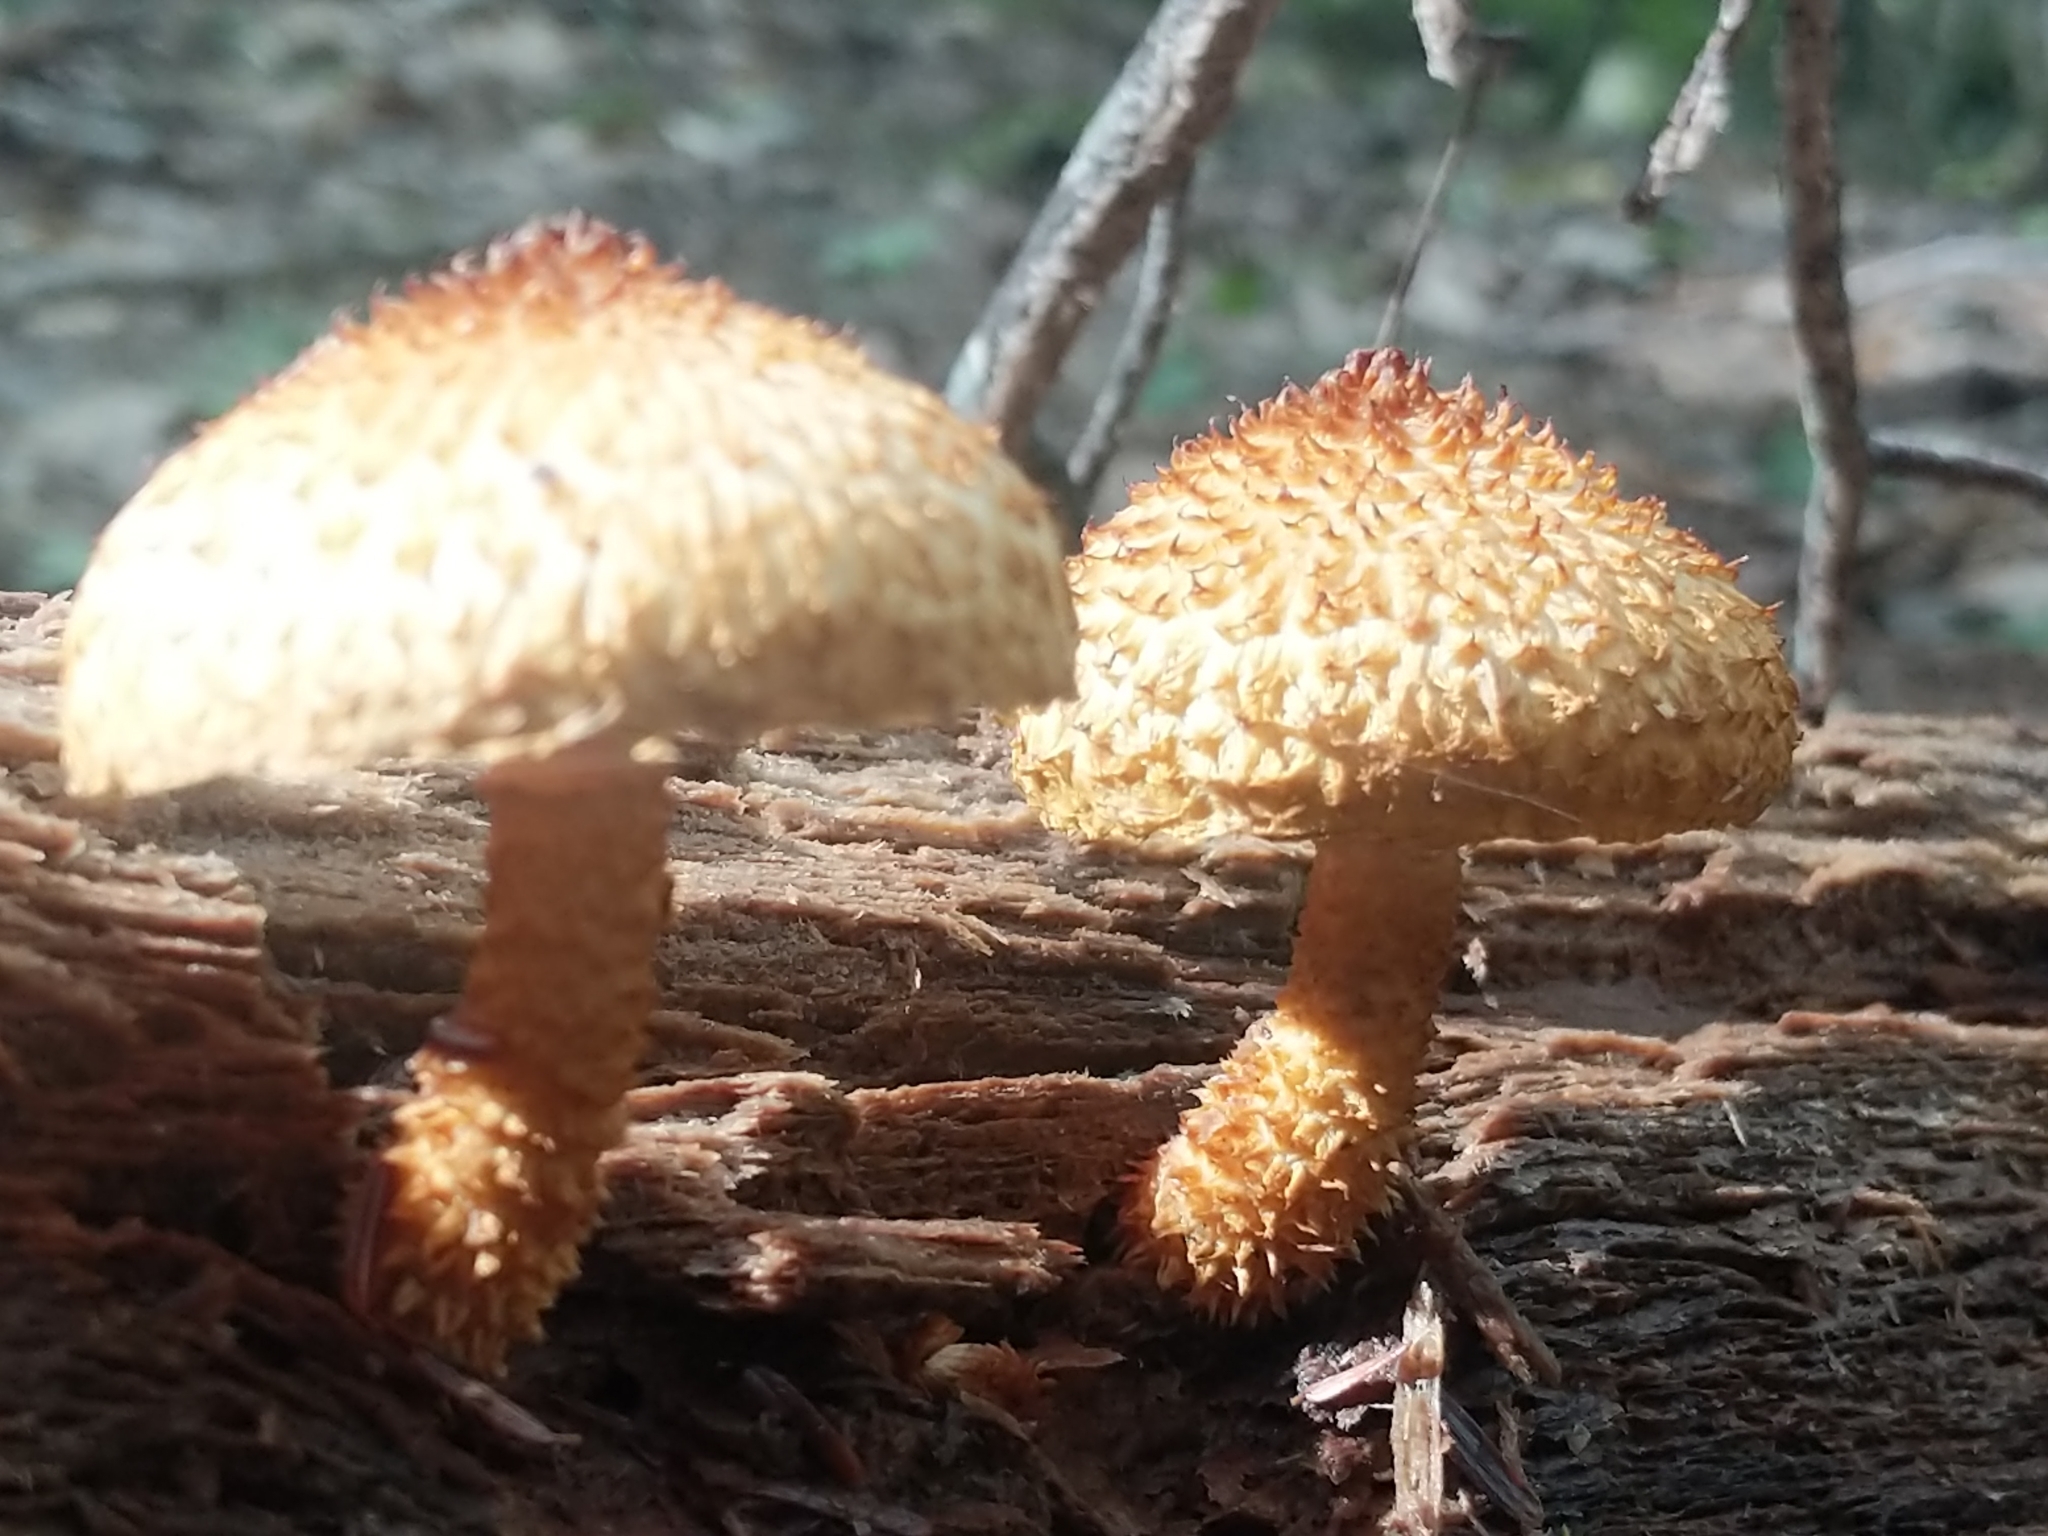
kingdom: Fungi
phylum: Basidiomycota
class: Agaricomycetes
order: Agaricales
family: Agaricaceae
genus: Leucopholiota
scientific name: Leucopholiota decorosa
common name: Decorated pholiota
